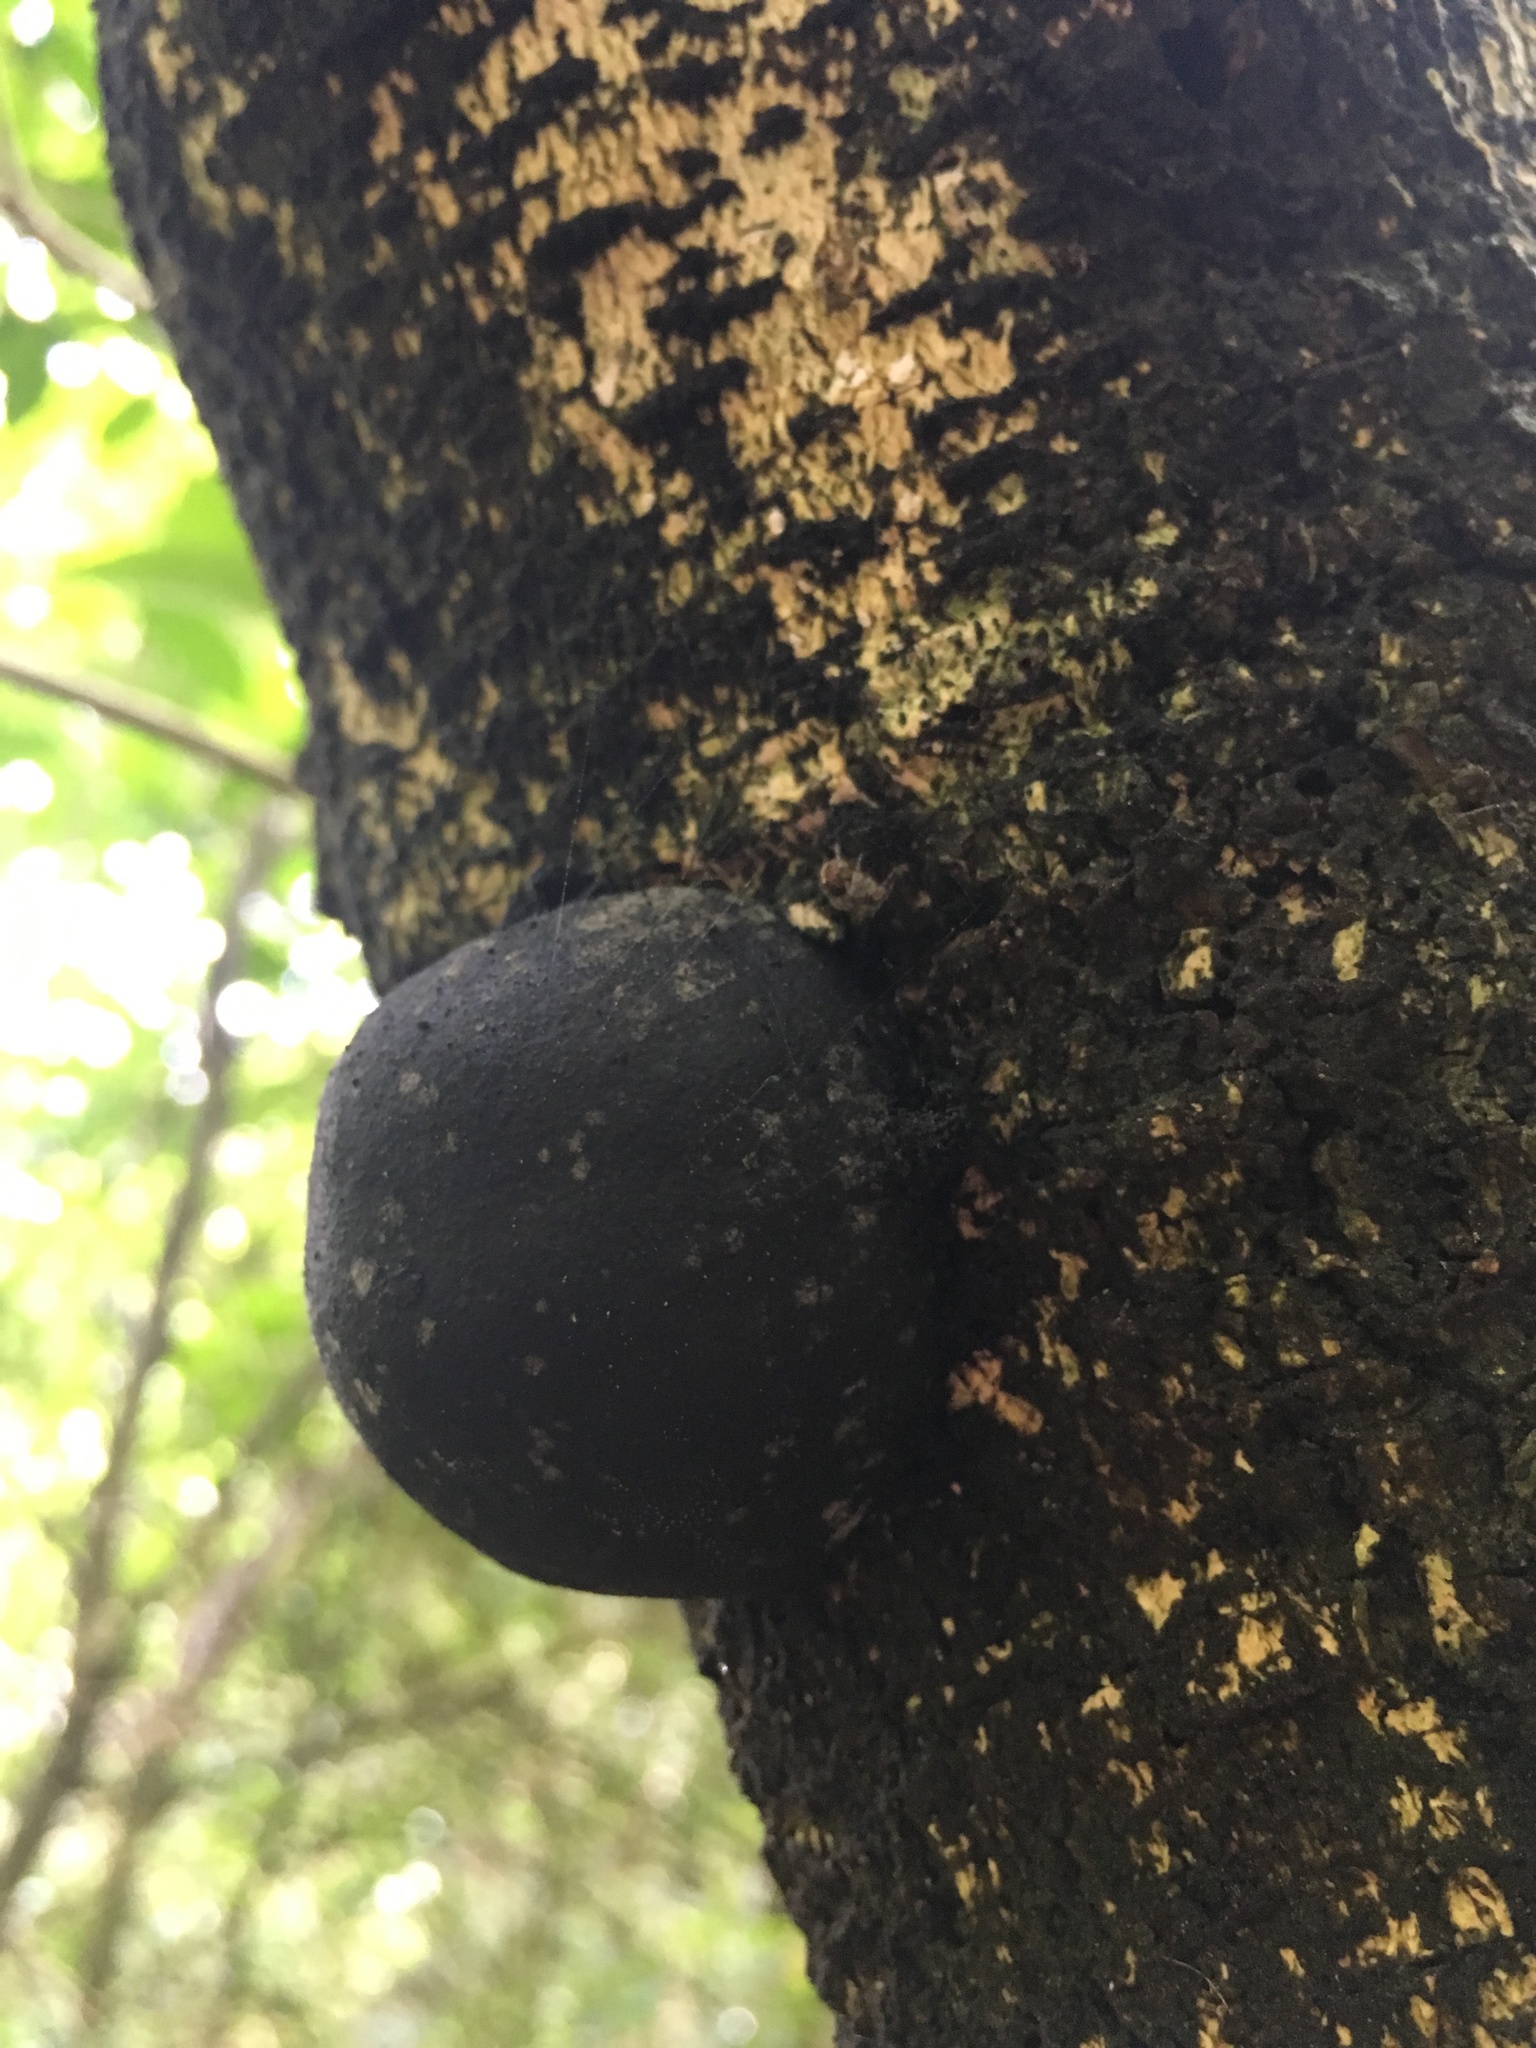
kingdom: Fungi
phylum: Ascomycota
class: Sordariomycetes
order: Xylariales
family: Hypoxylaceae
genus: Daldinia
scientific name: Daldinia
